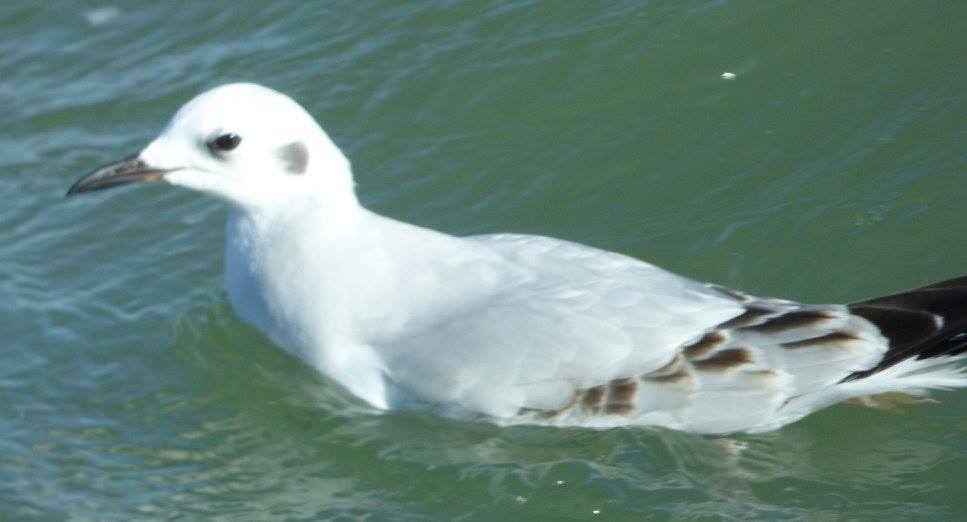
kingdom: Animalia
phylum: Chordata
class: Aves
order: Charadriiformes
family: Laridae
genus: Chroicocephalus
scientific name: Chroicocephalus philadelphia
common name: Bonaparte's gull
